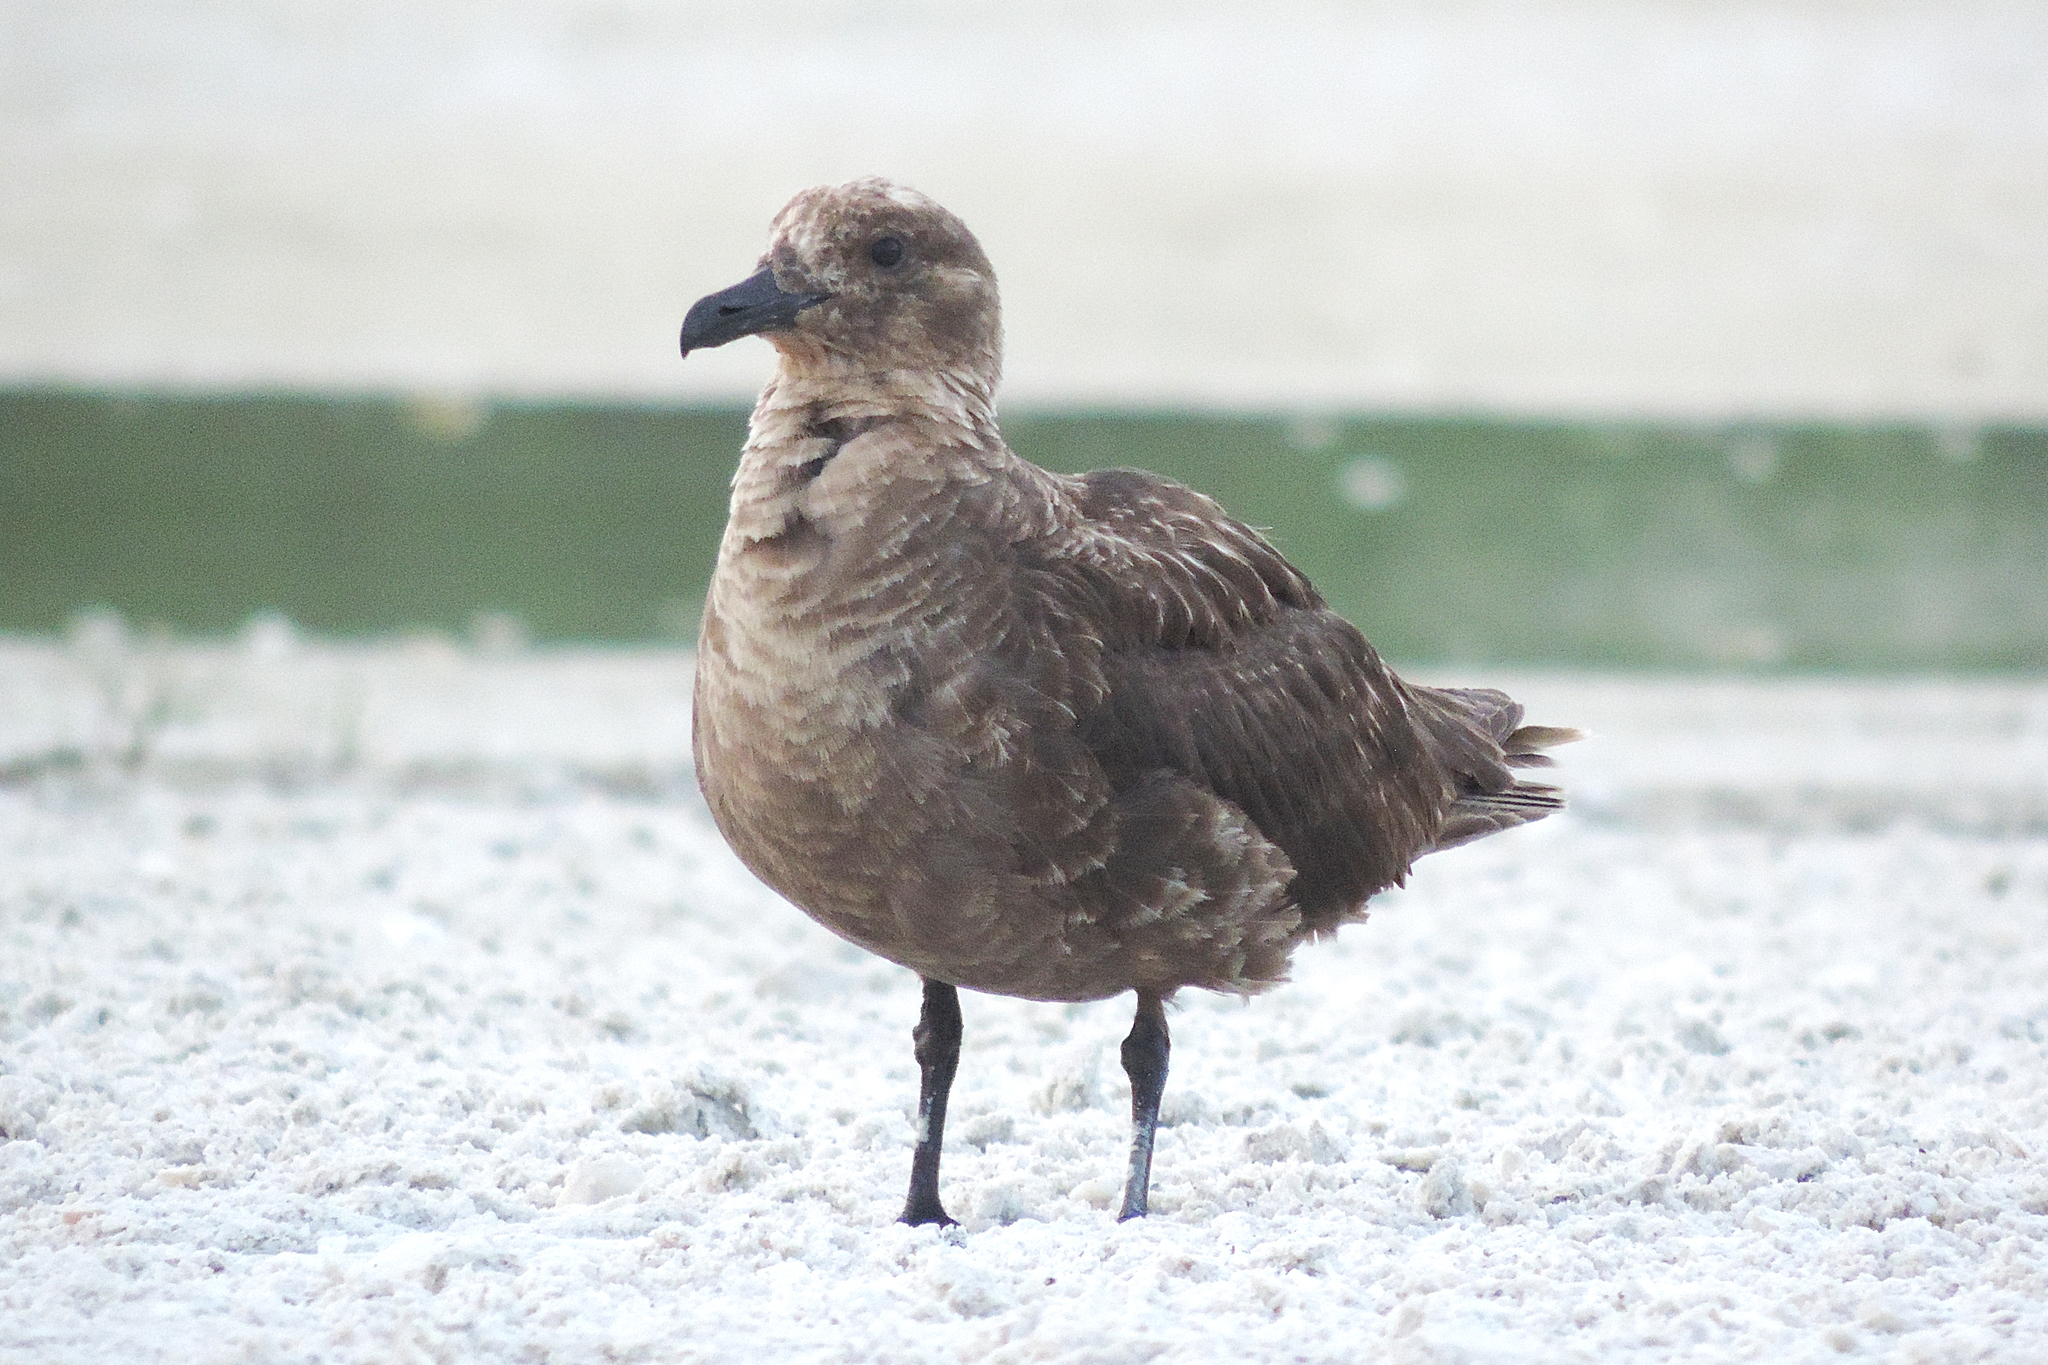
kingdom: Animalia
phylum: Chordata
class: Aves
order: Charadriiformes
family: Stercorariidae
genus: Stercorarius
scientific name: Stercorarius maccormicki
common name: South polar skua
